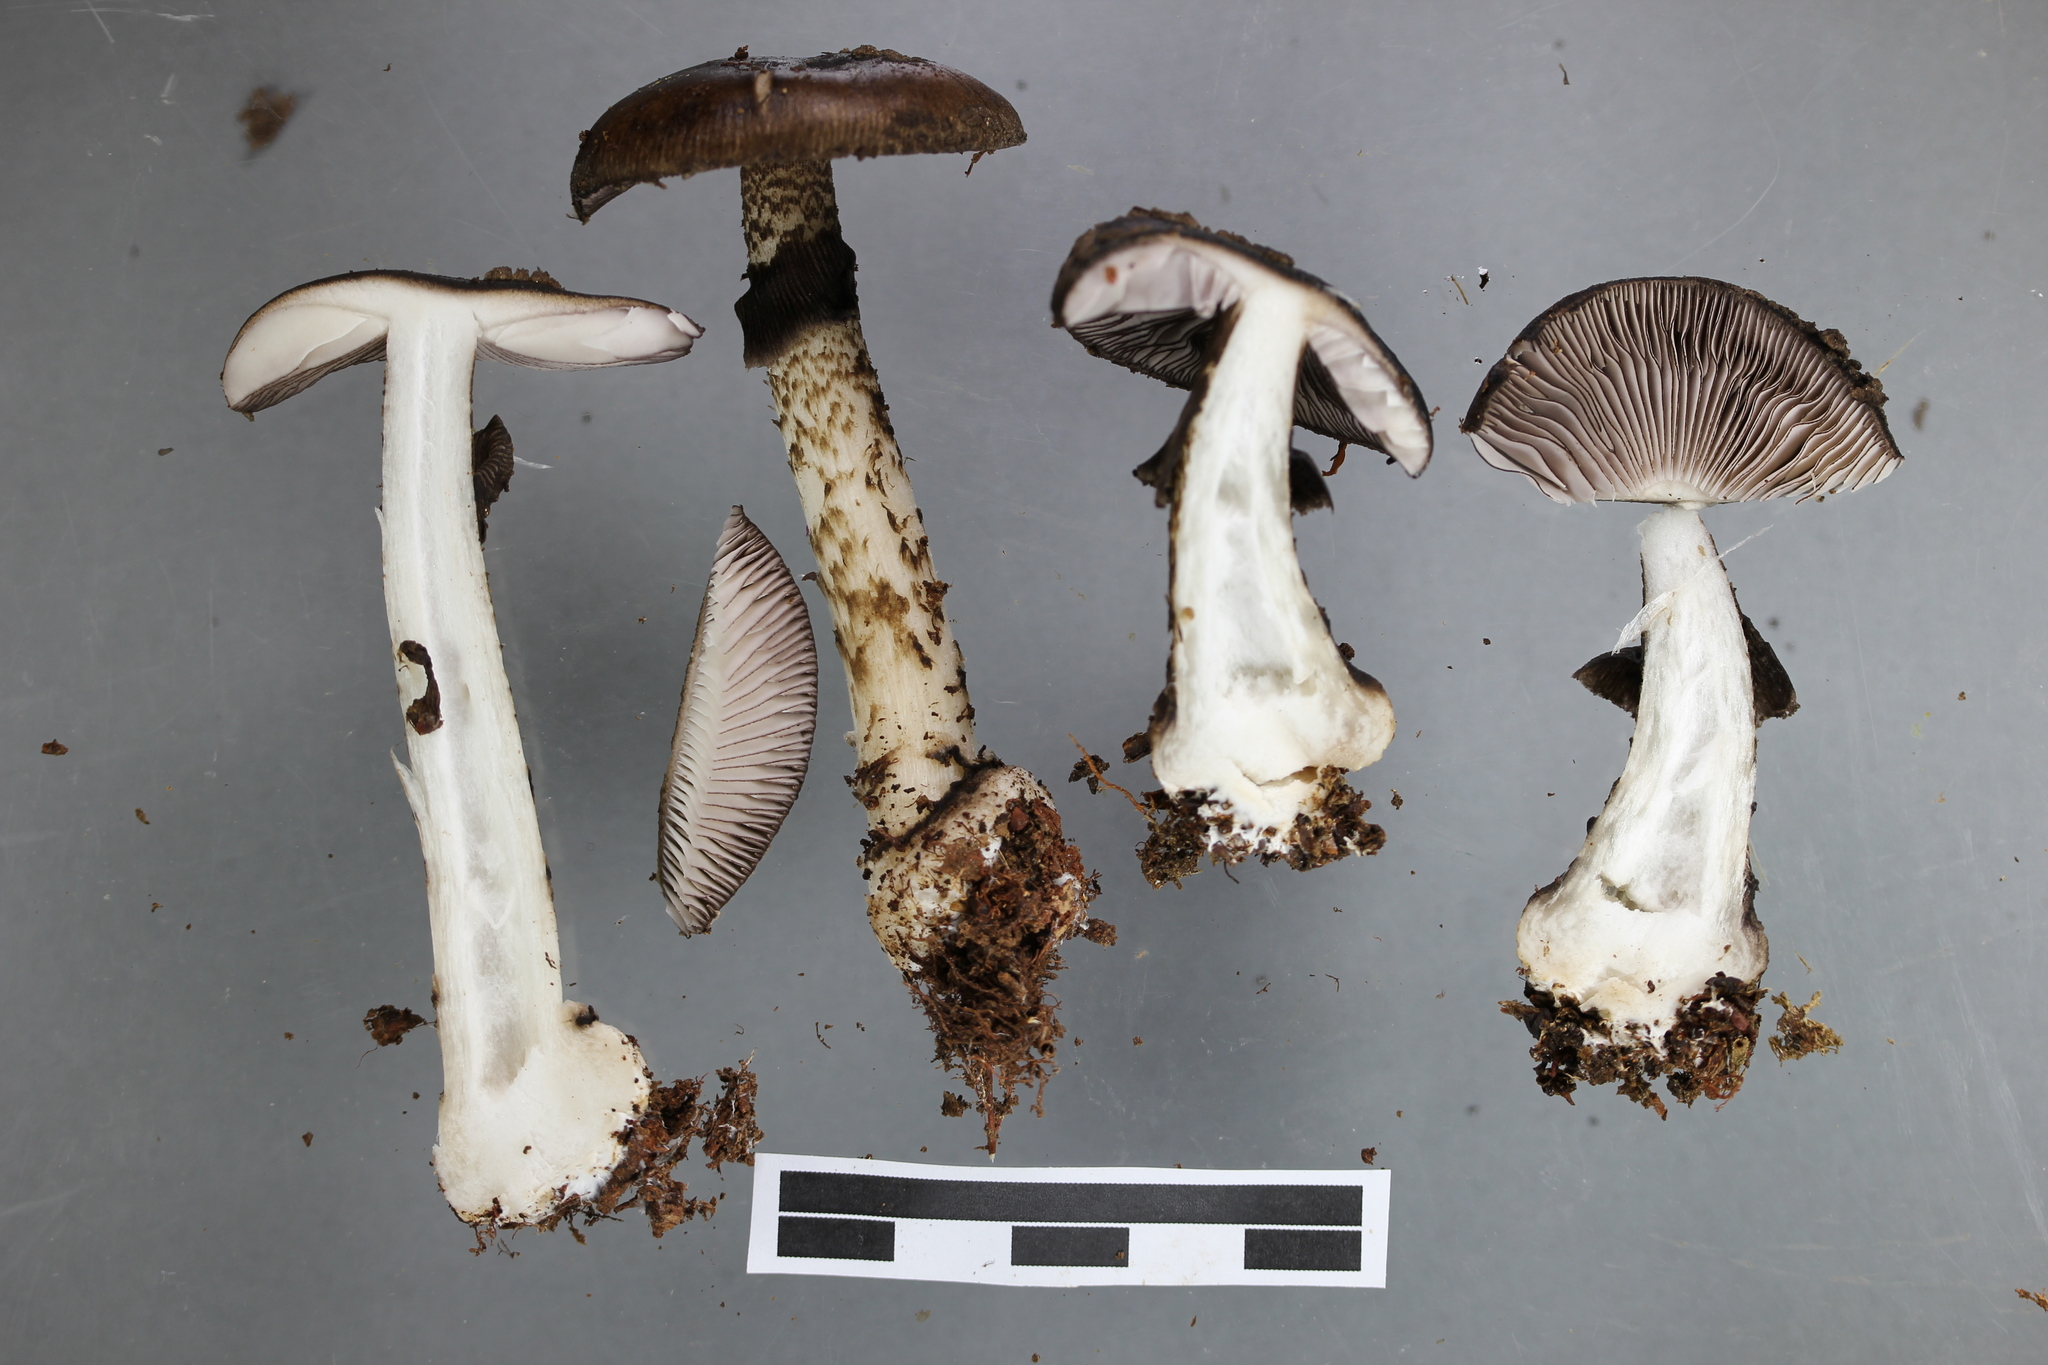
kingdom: Fungi
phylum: Basidiomycota
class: Agaricomycetes
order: Agaricales
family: Amanitaceae
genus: Amanita
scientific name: Amanita nigrescens
